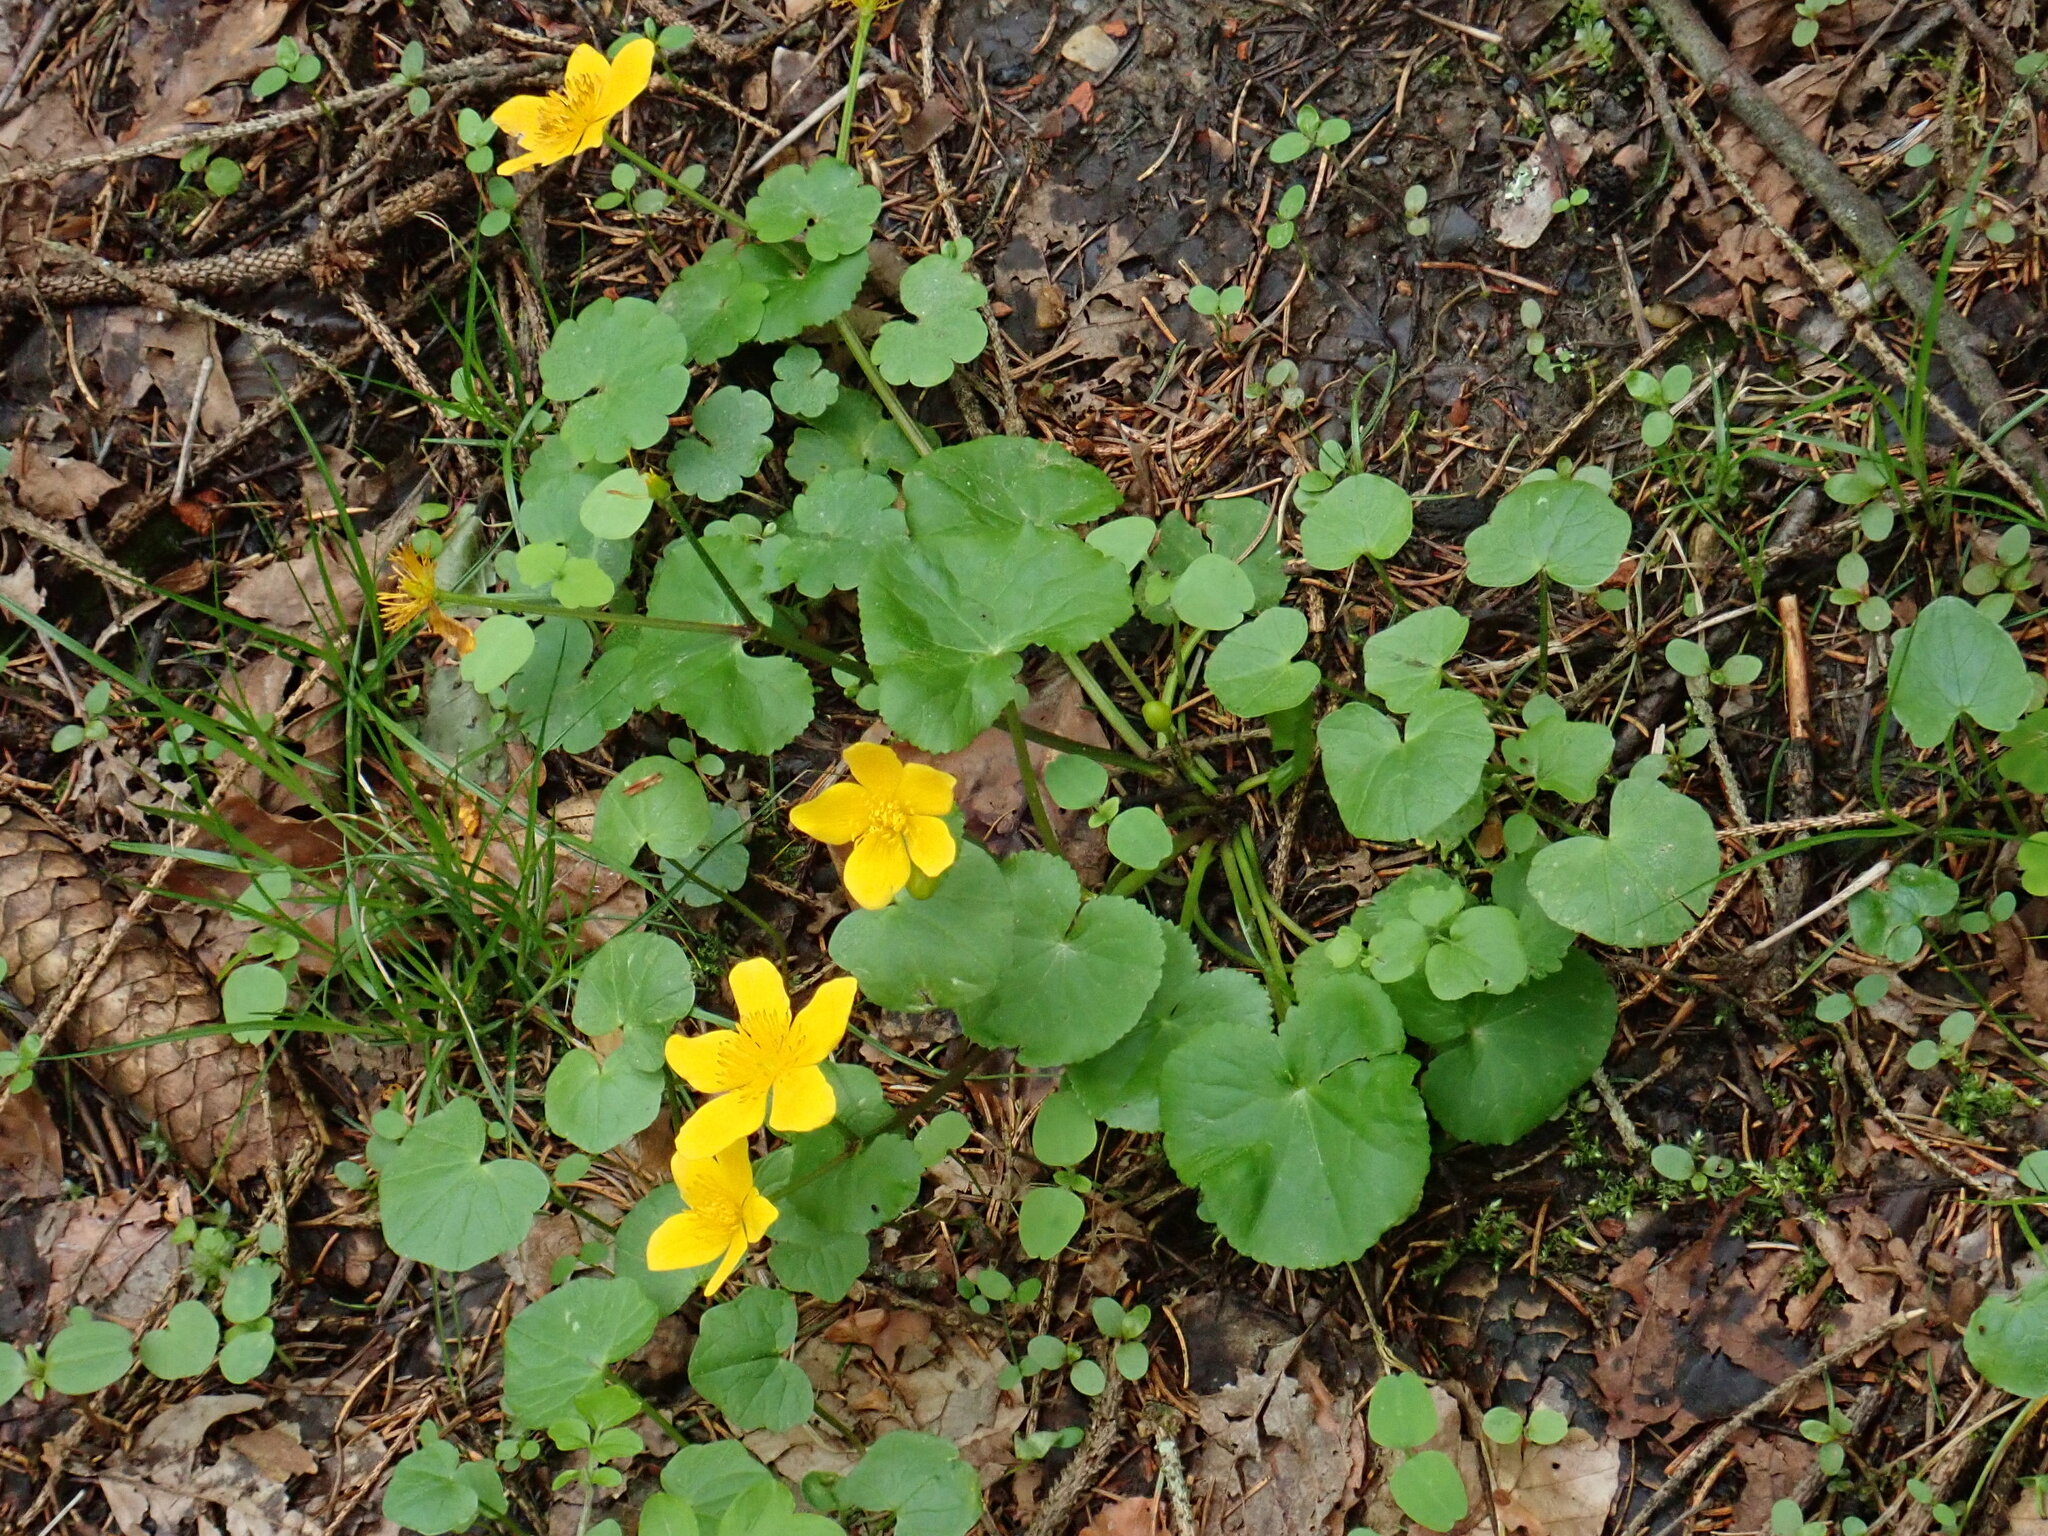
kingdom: Plantae
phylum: Tracheophyta
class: Magnoliopsida
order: Ranunculales
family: Ranunculaceae
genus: Caltha
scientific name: Caltha palustris
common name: Marsh marigold
